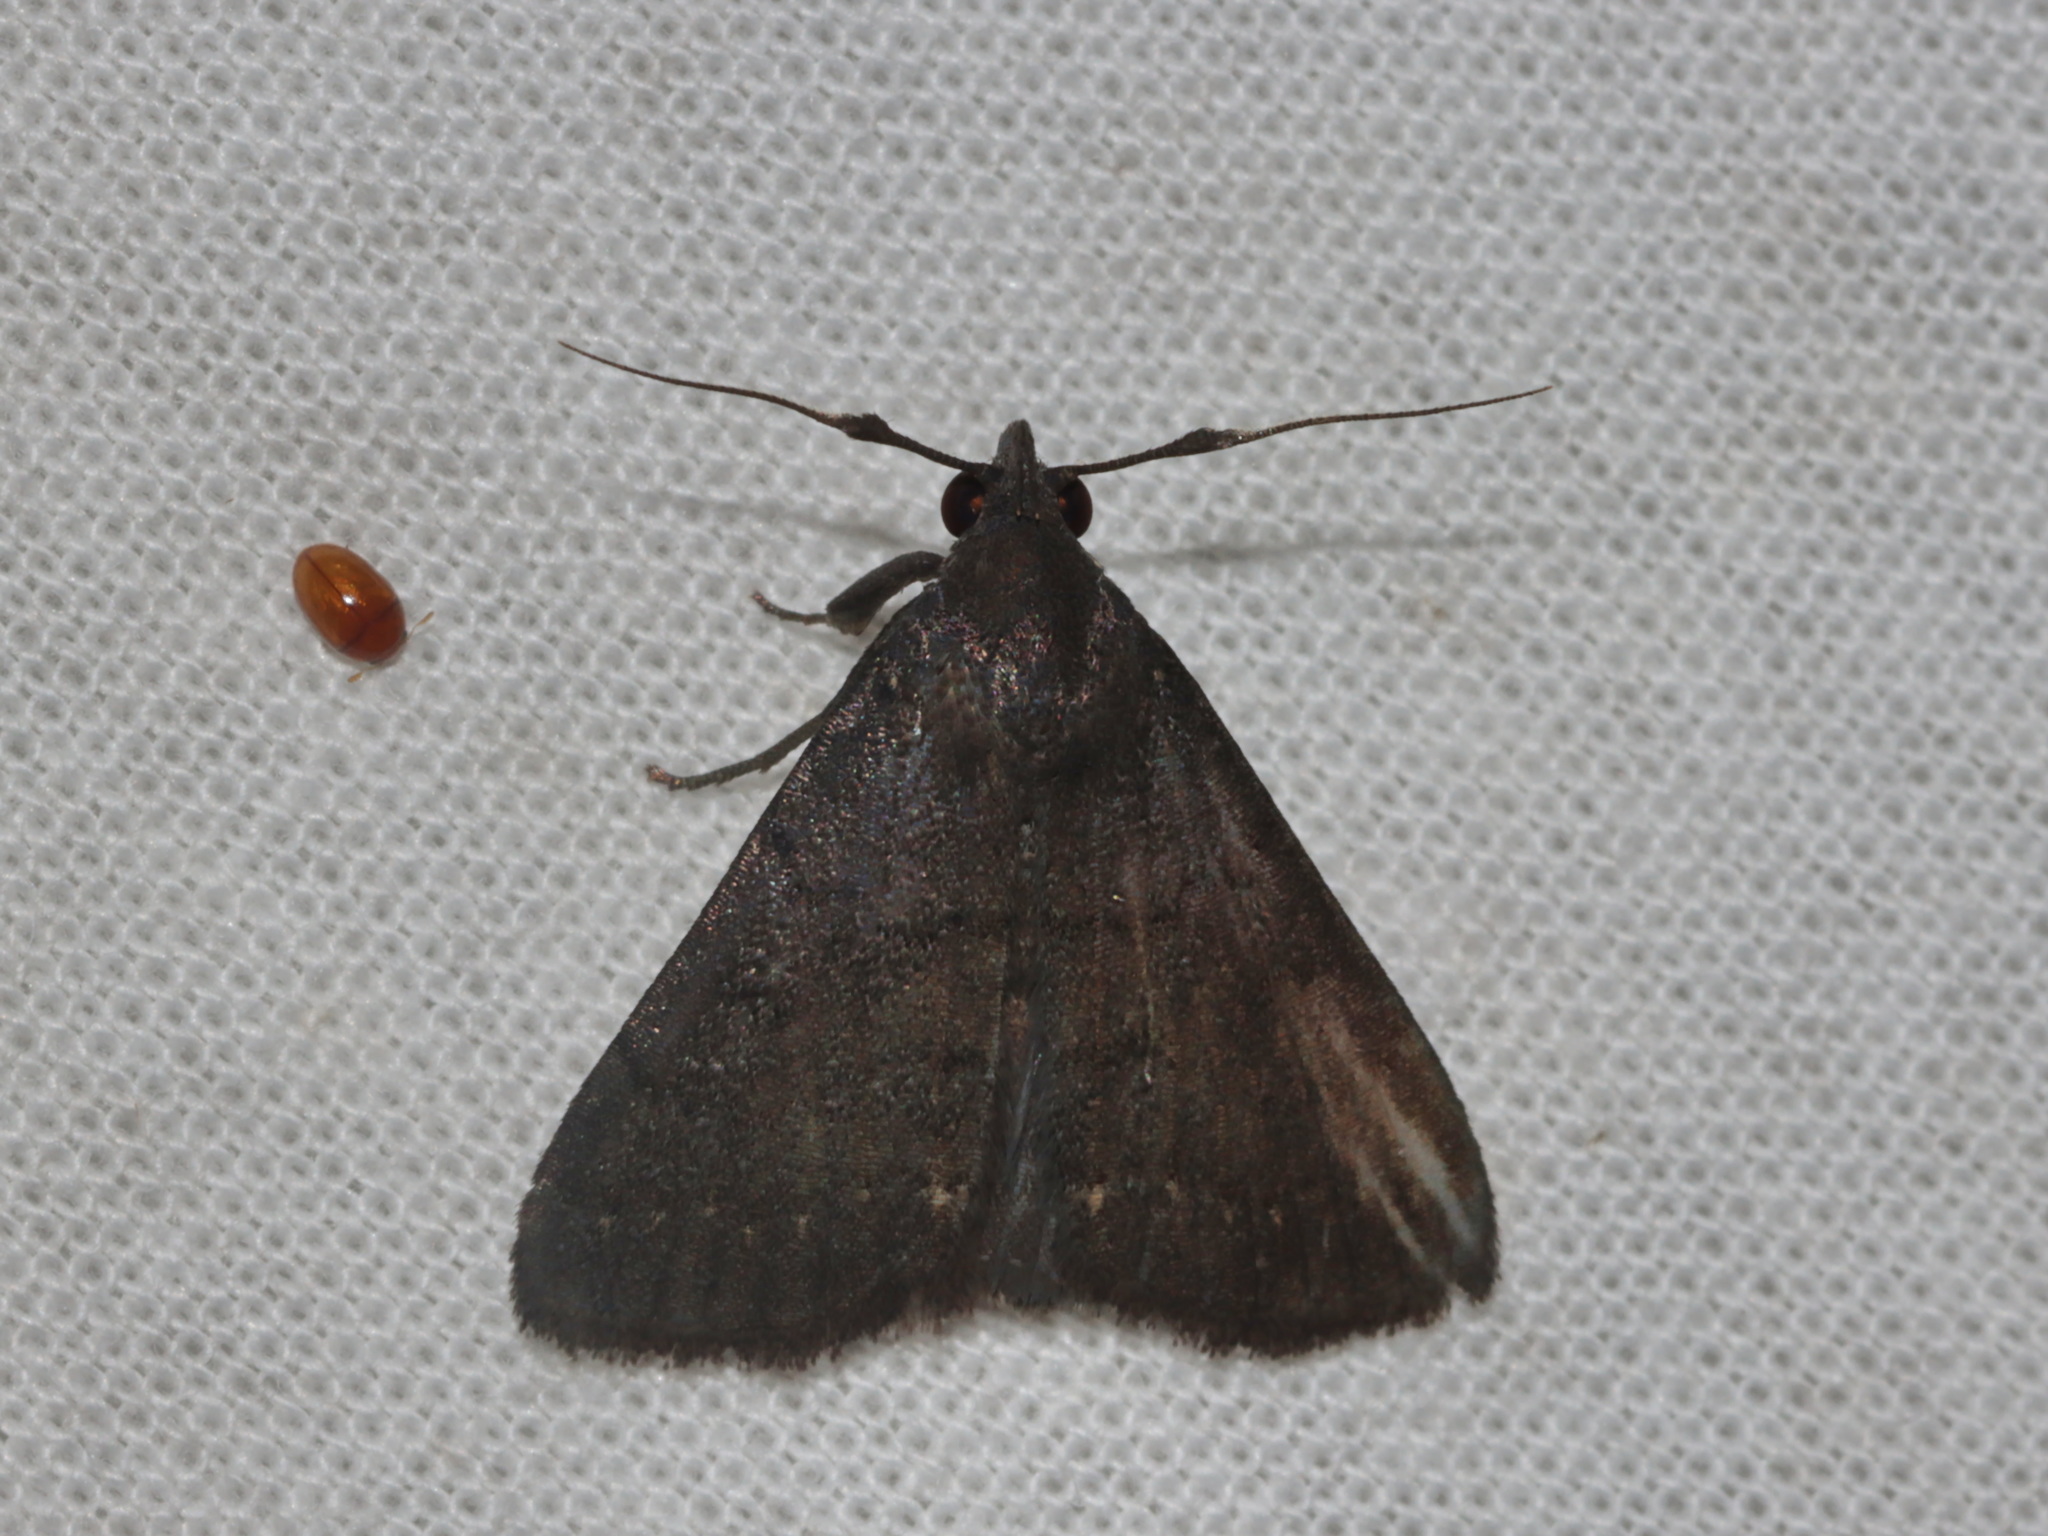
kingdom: Animalia
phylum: Arthropoda
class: Insecta
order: Lepidoptera
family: Erebidae
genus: Nodaria
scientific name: Nodaria externalis
